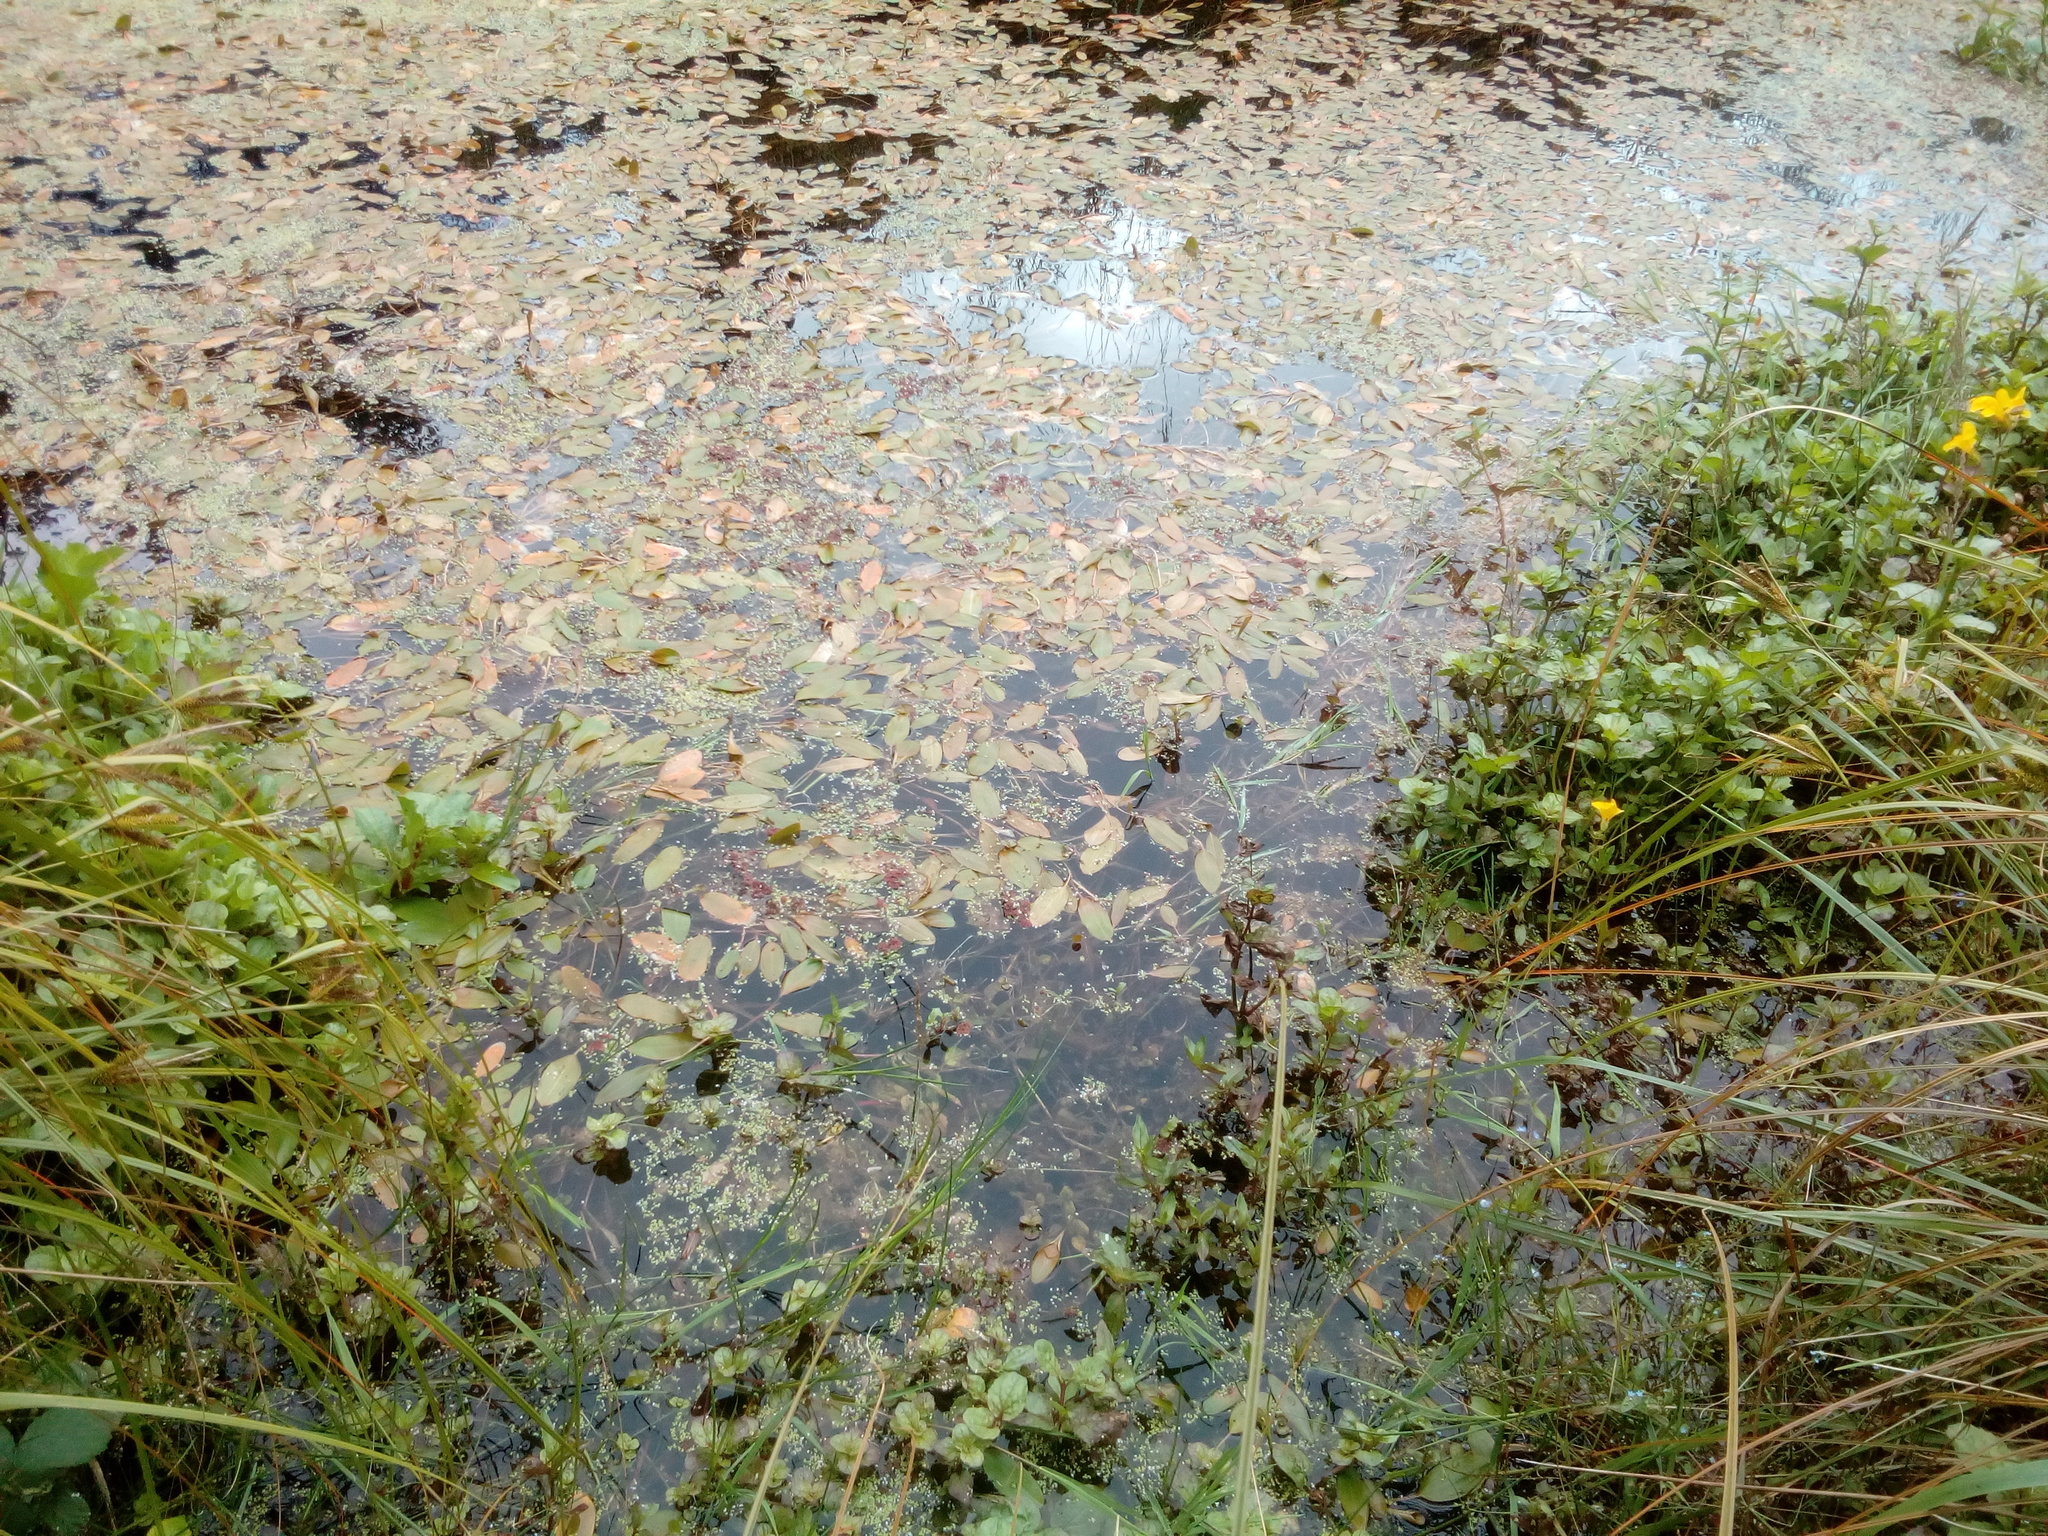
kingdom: Plantae
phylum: Tracheophyta
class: Liliopsida
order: Alismatales
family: Potamogetonaceae
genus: Potamogeton
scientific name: Potamogeton cheesemanii
